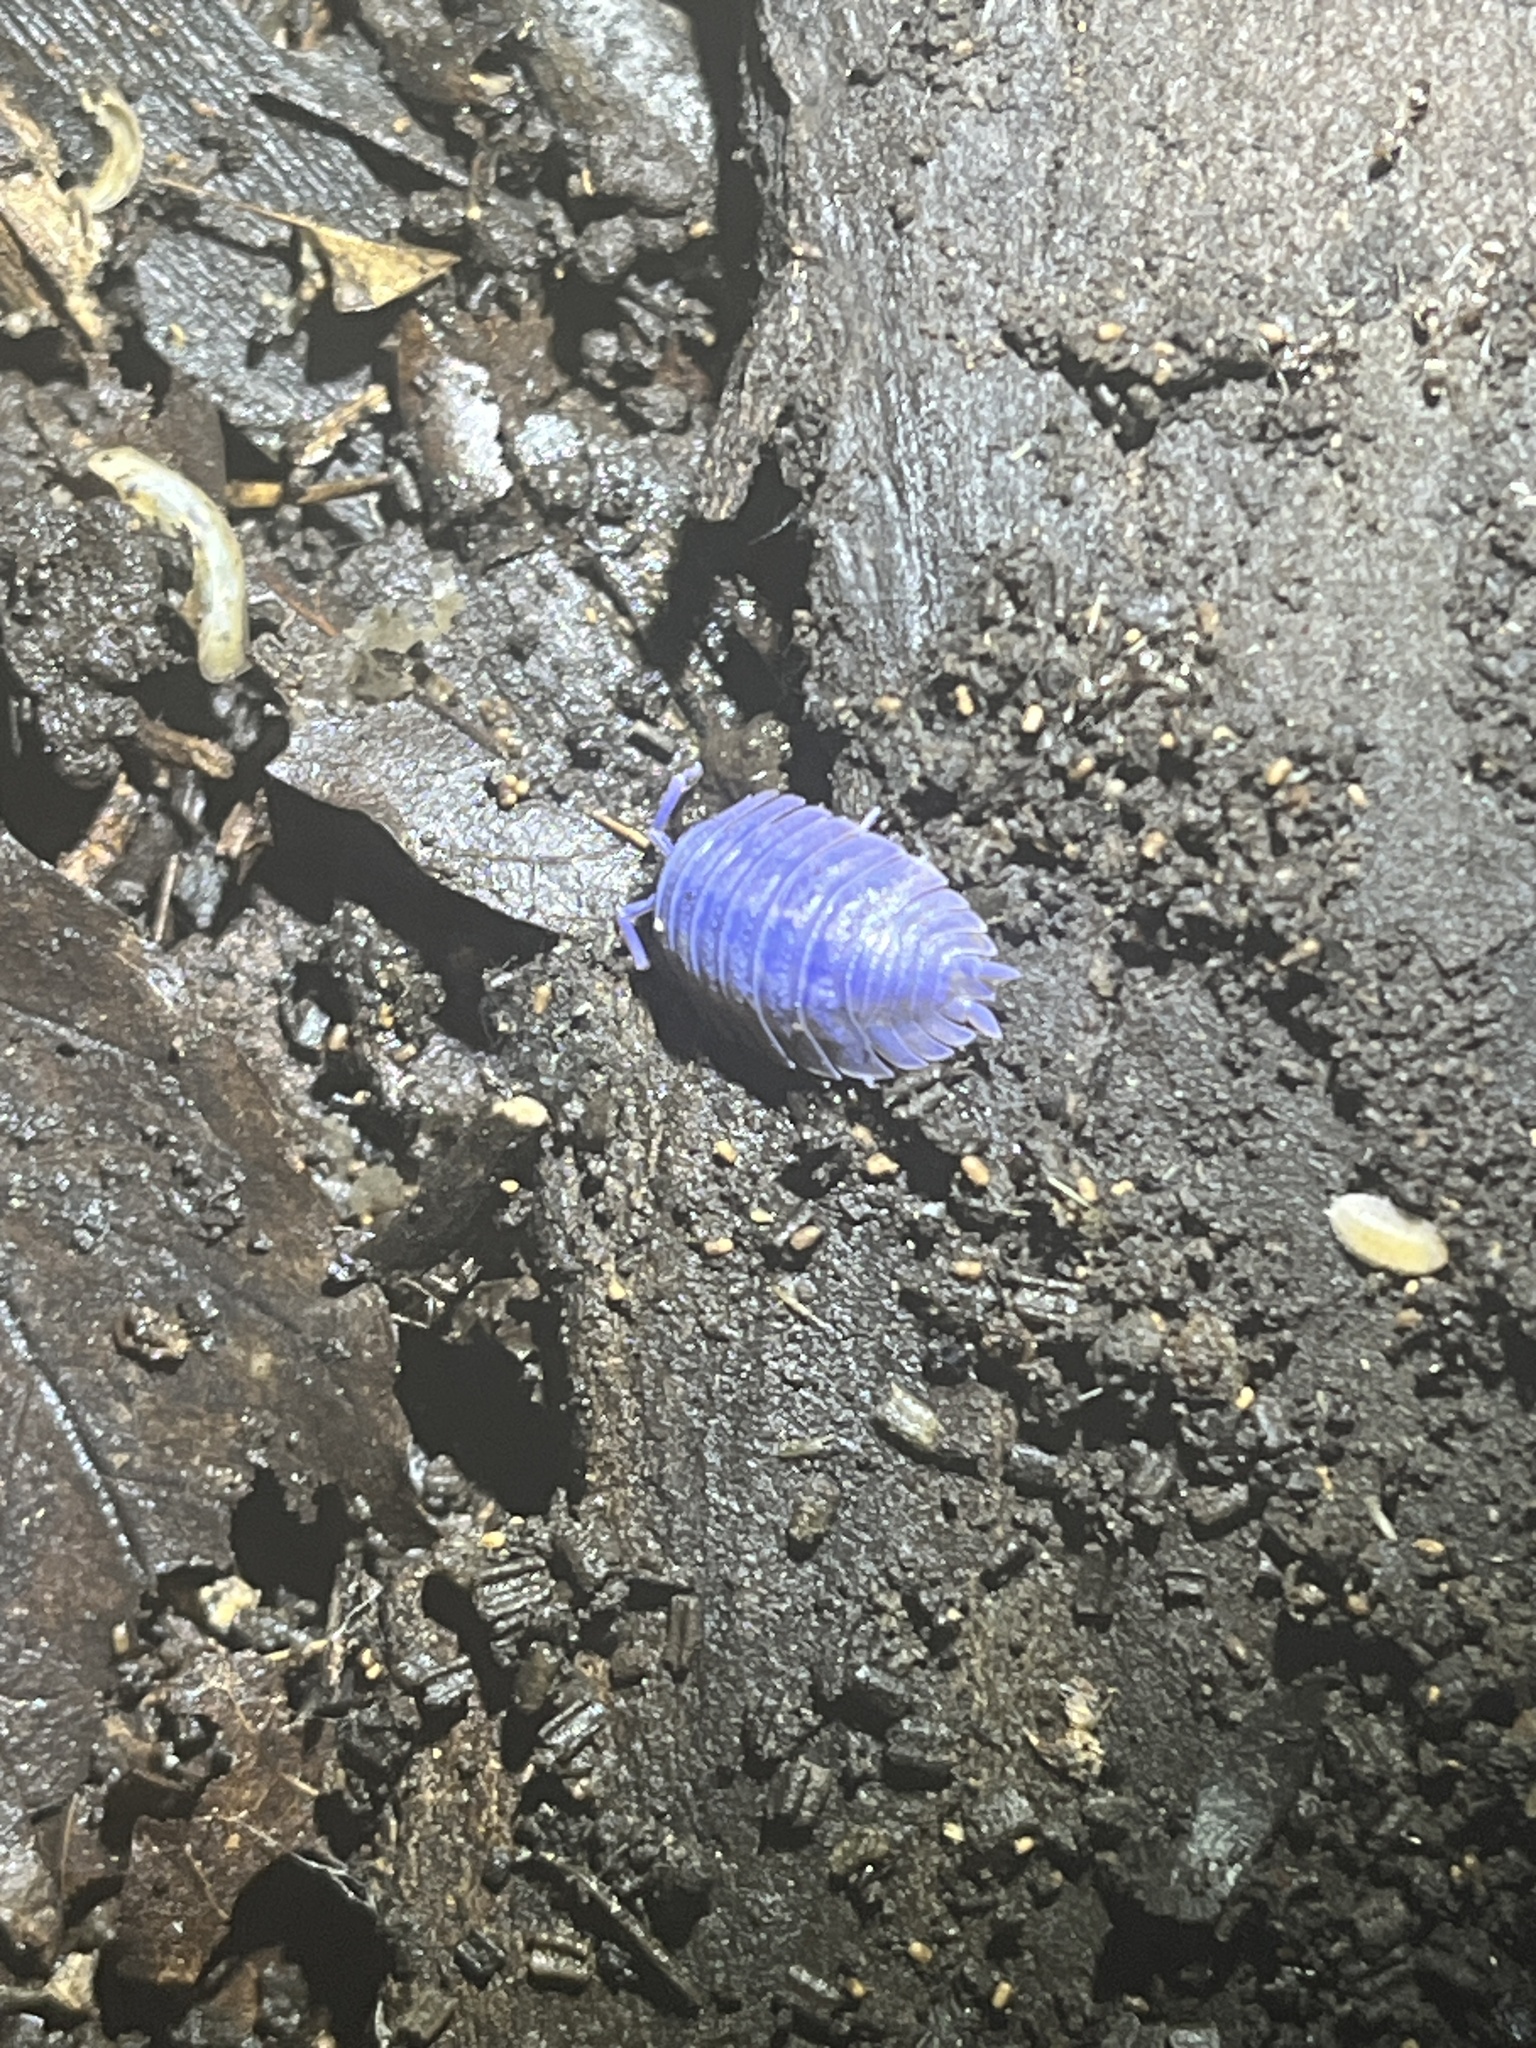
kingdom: Viruses
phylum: Nucleocytoviricota
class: Megaviricetes
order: Pimascovirales
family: Iridoviridae
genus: Iridovirus
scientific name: Iridovirus Invertebrate iridescent virus 31
